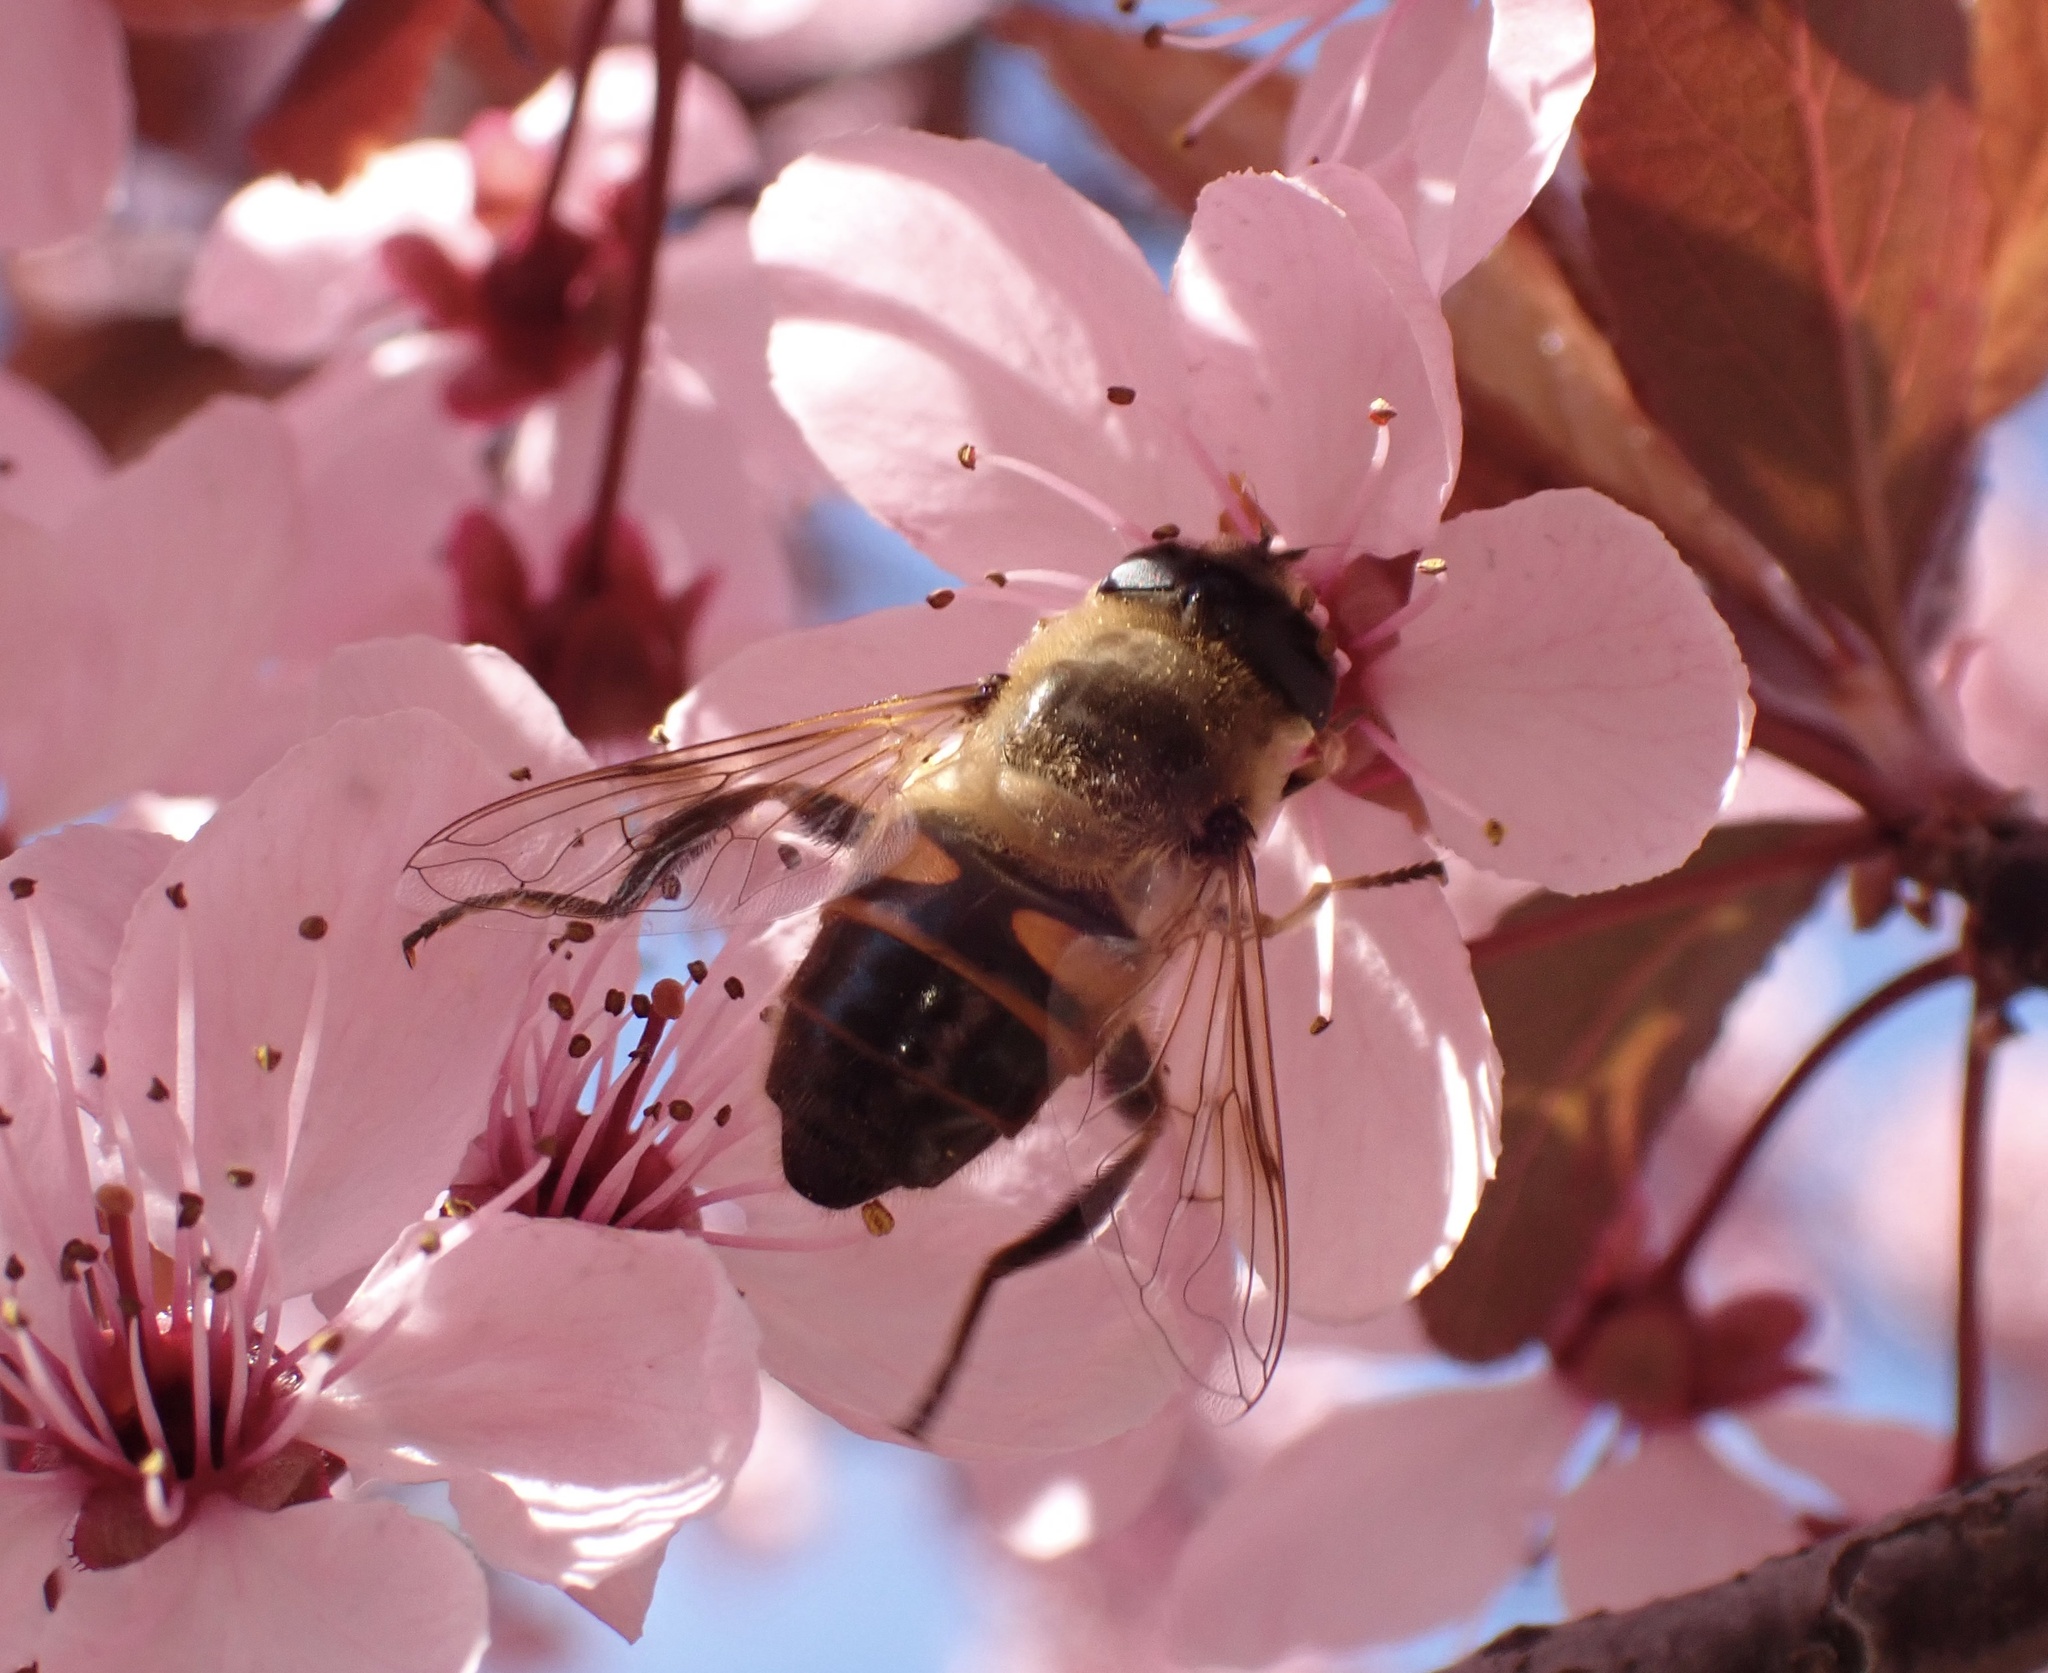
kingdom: Animalia
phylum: Arthropoda
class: Insecta
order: Diptera
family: Syrphidae
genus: Eristalis
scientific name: Eristalis tenax
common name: Drone fly
